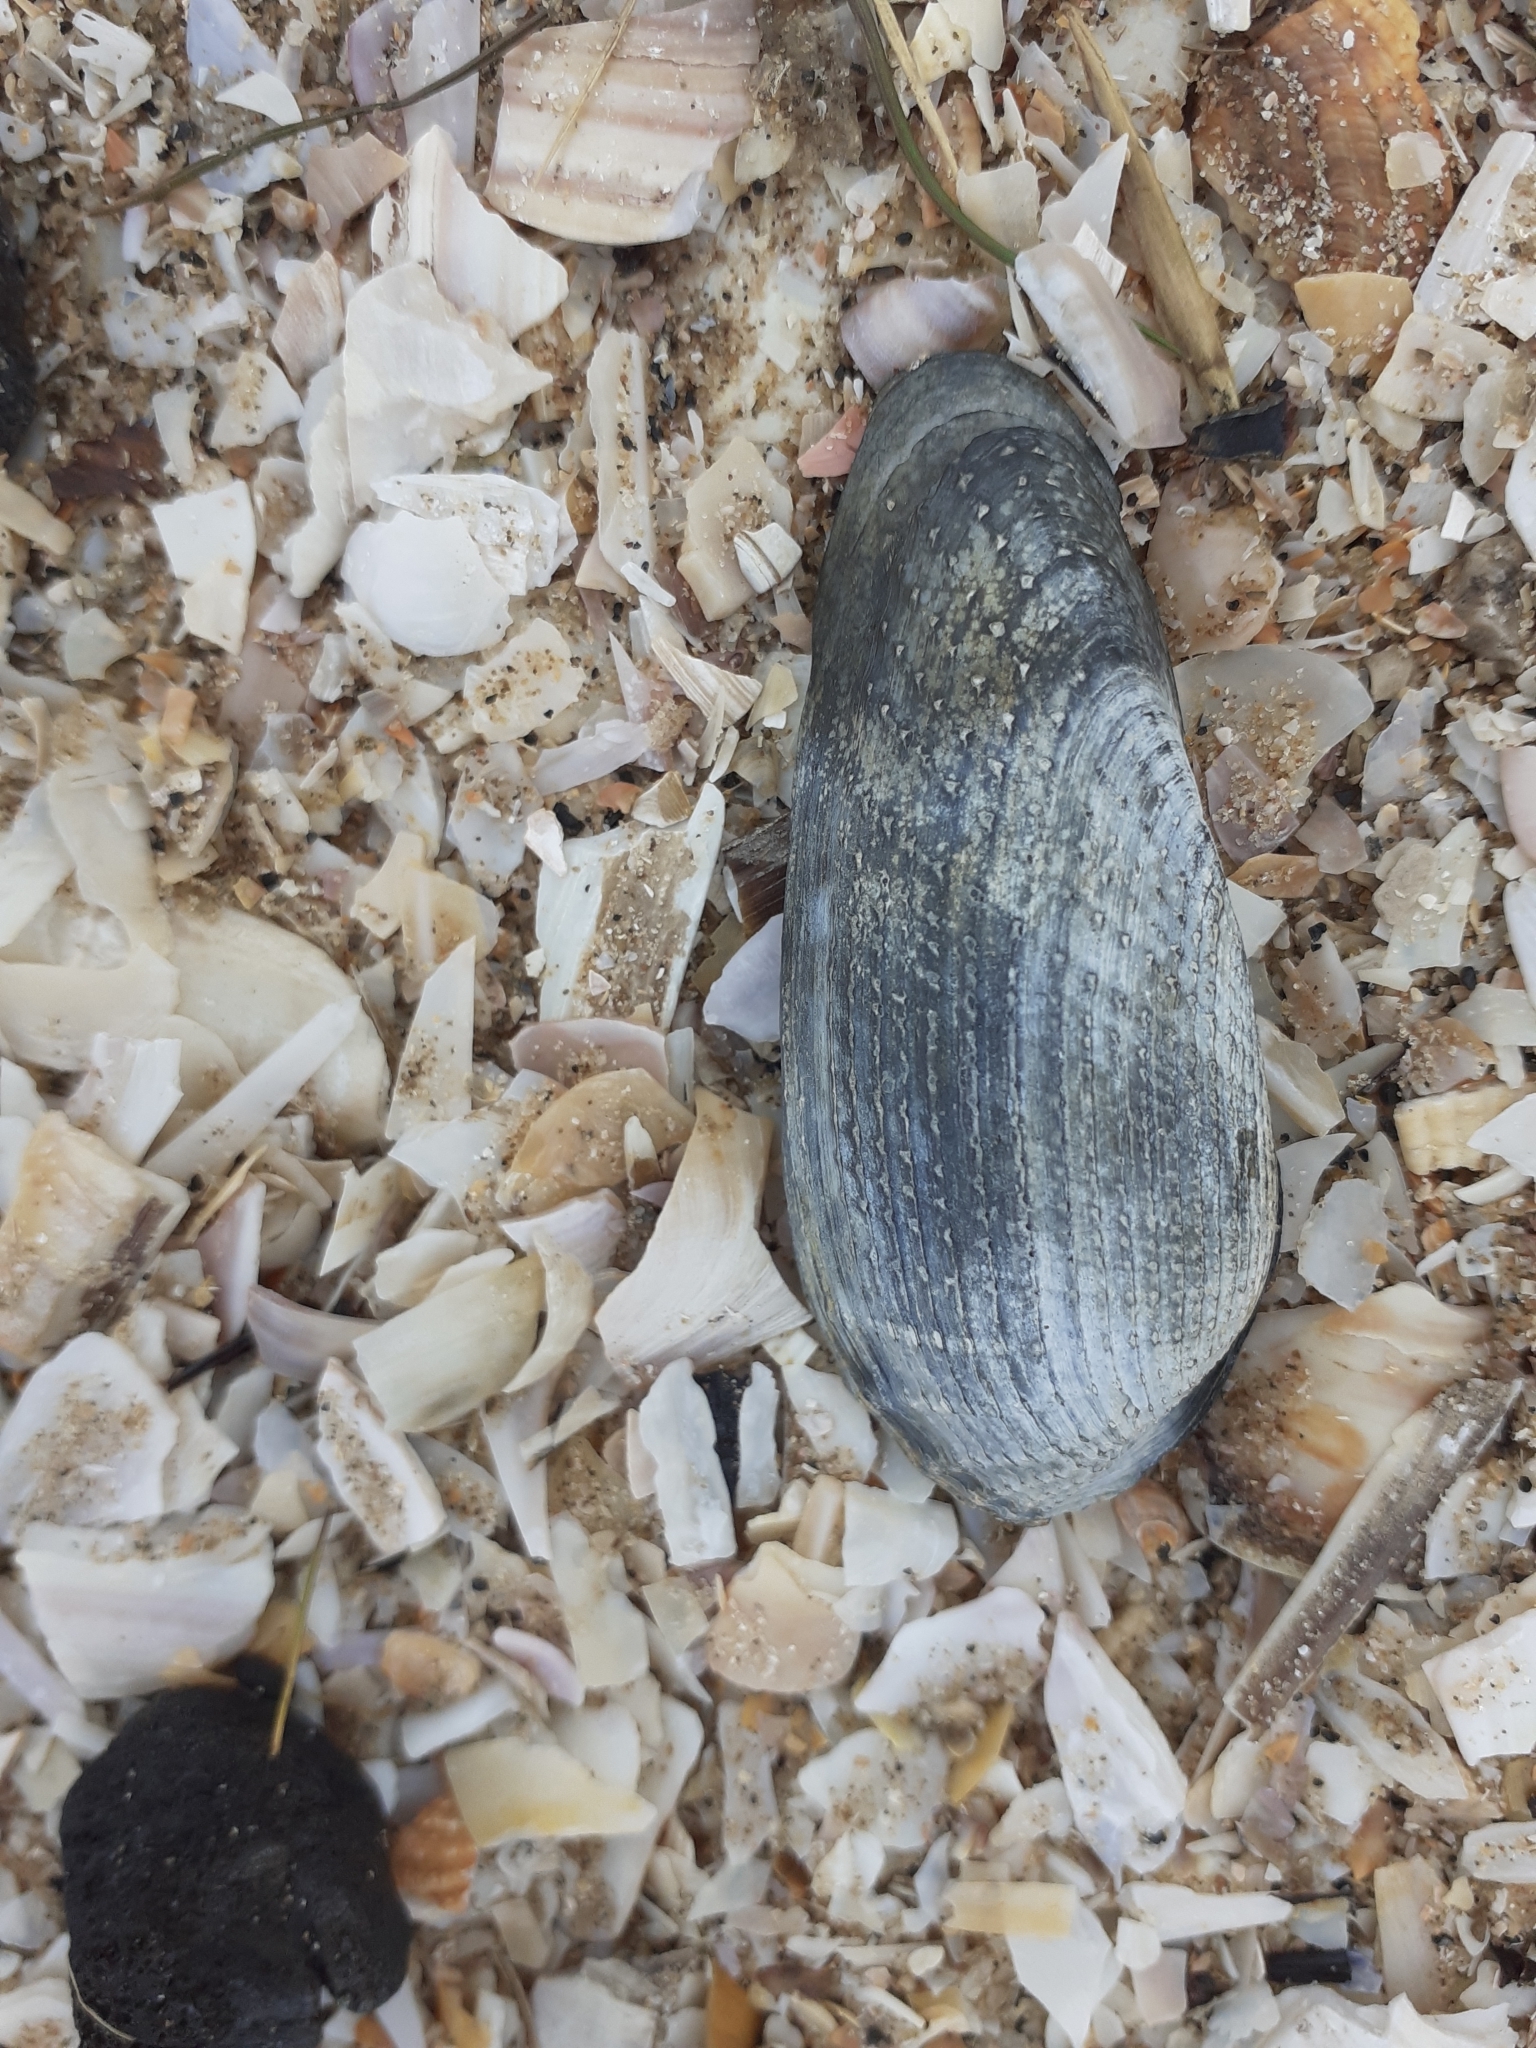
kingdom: Animalia
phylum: Mollusca
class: Bivalvia
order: Myida
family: Pholadidae
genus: Barnea
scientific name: Barnea candida
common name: White piddock
